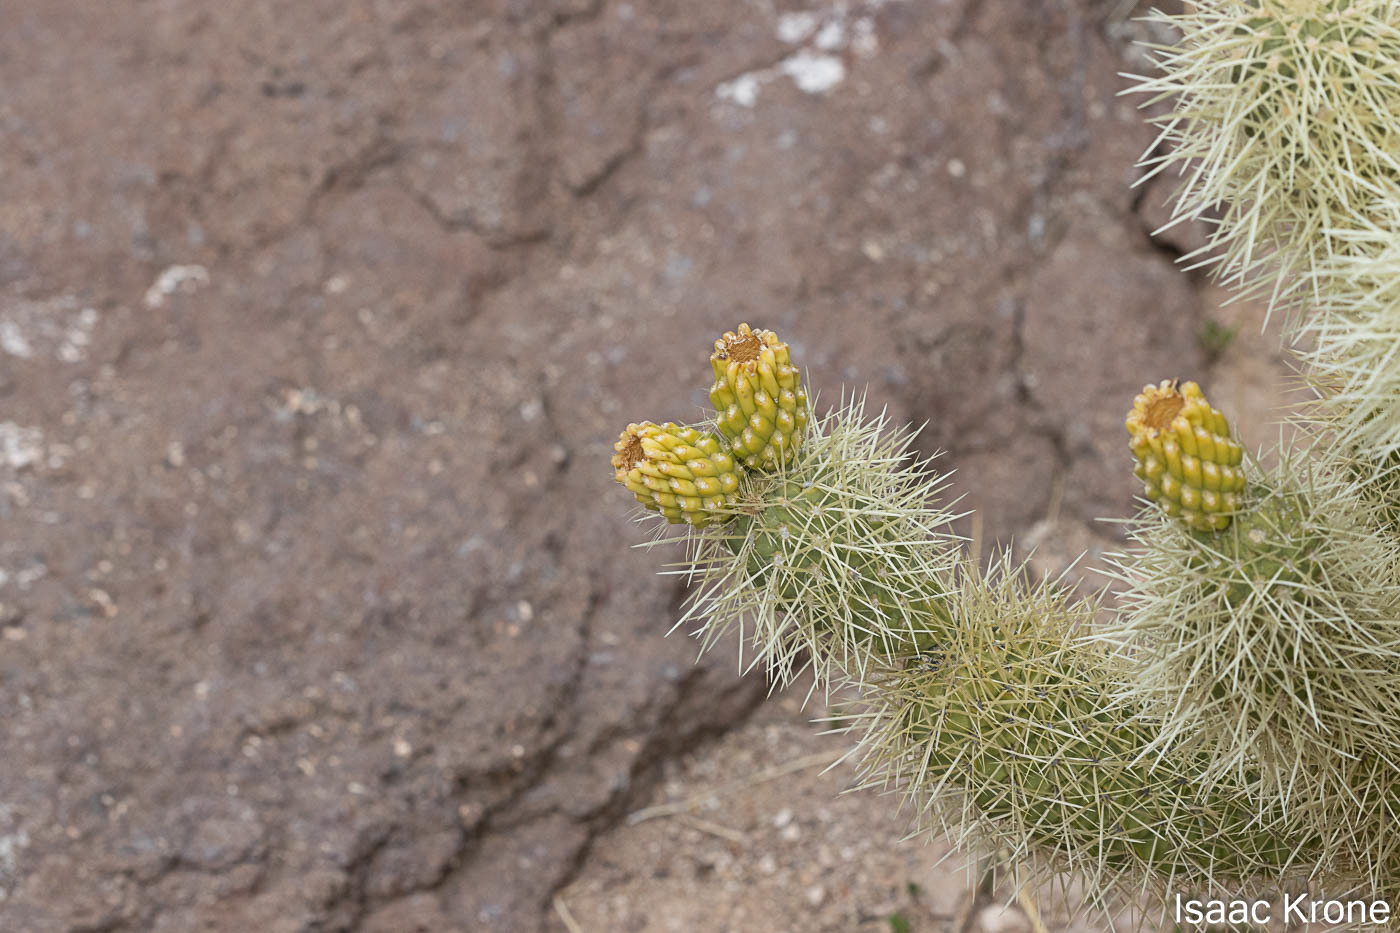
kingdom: Plantae
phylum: Tracheophyta
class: Magnoliopsida
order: Caryophyllales
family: Cactaceae
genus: Cylindropuntia
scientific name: Cylindropuntia fosbergii
